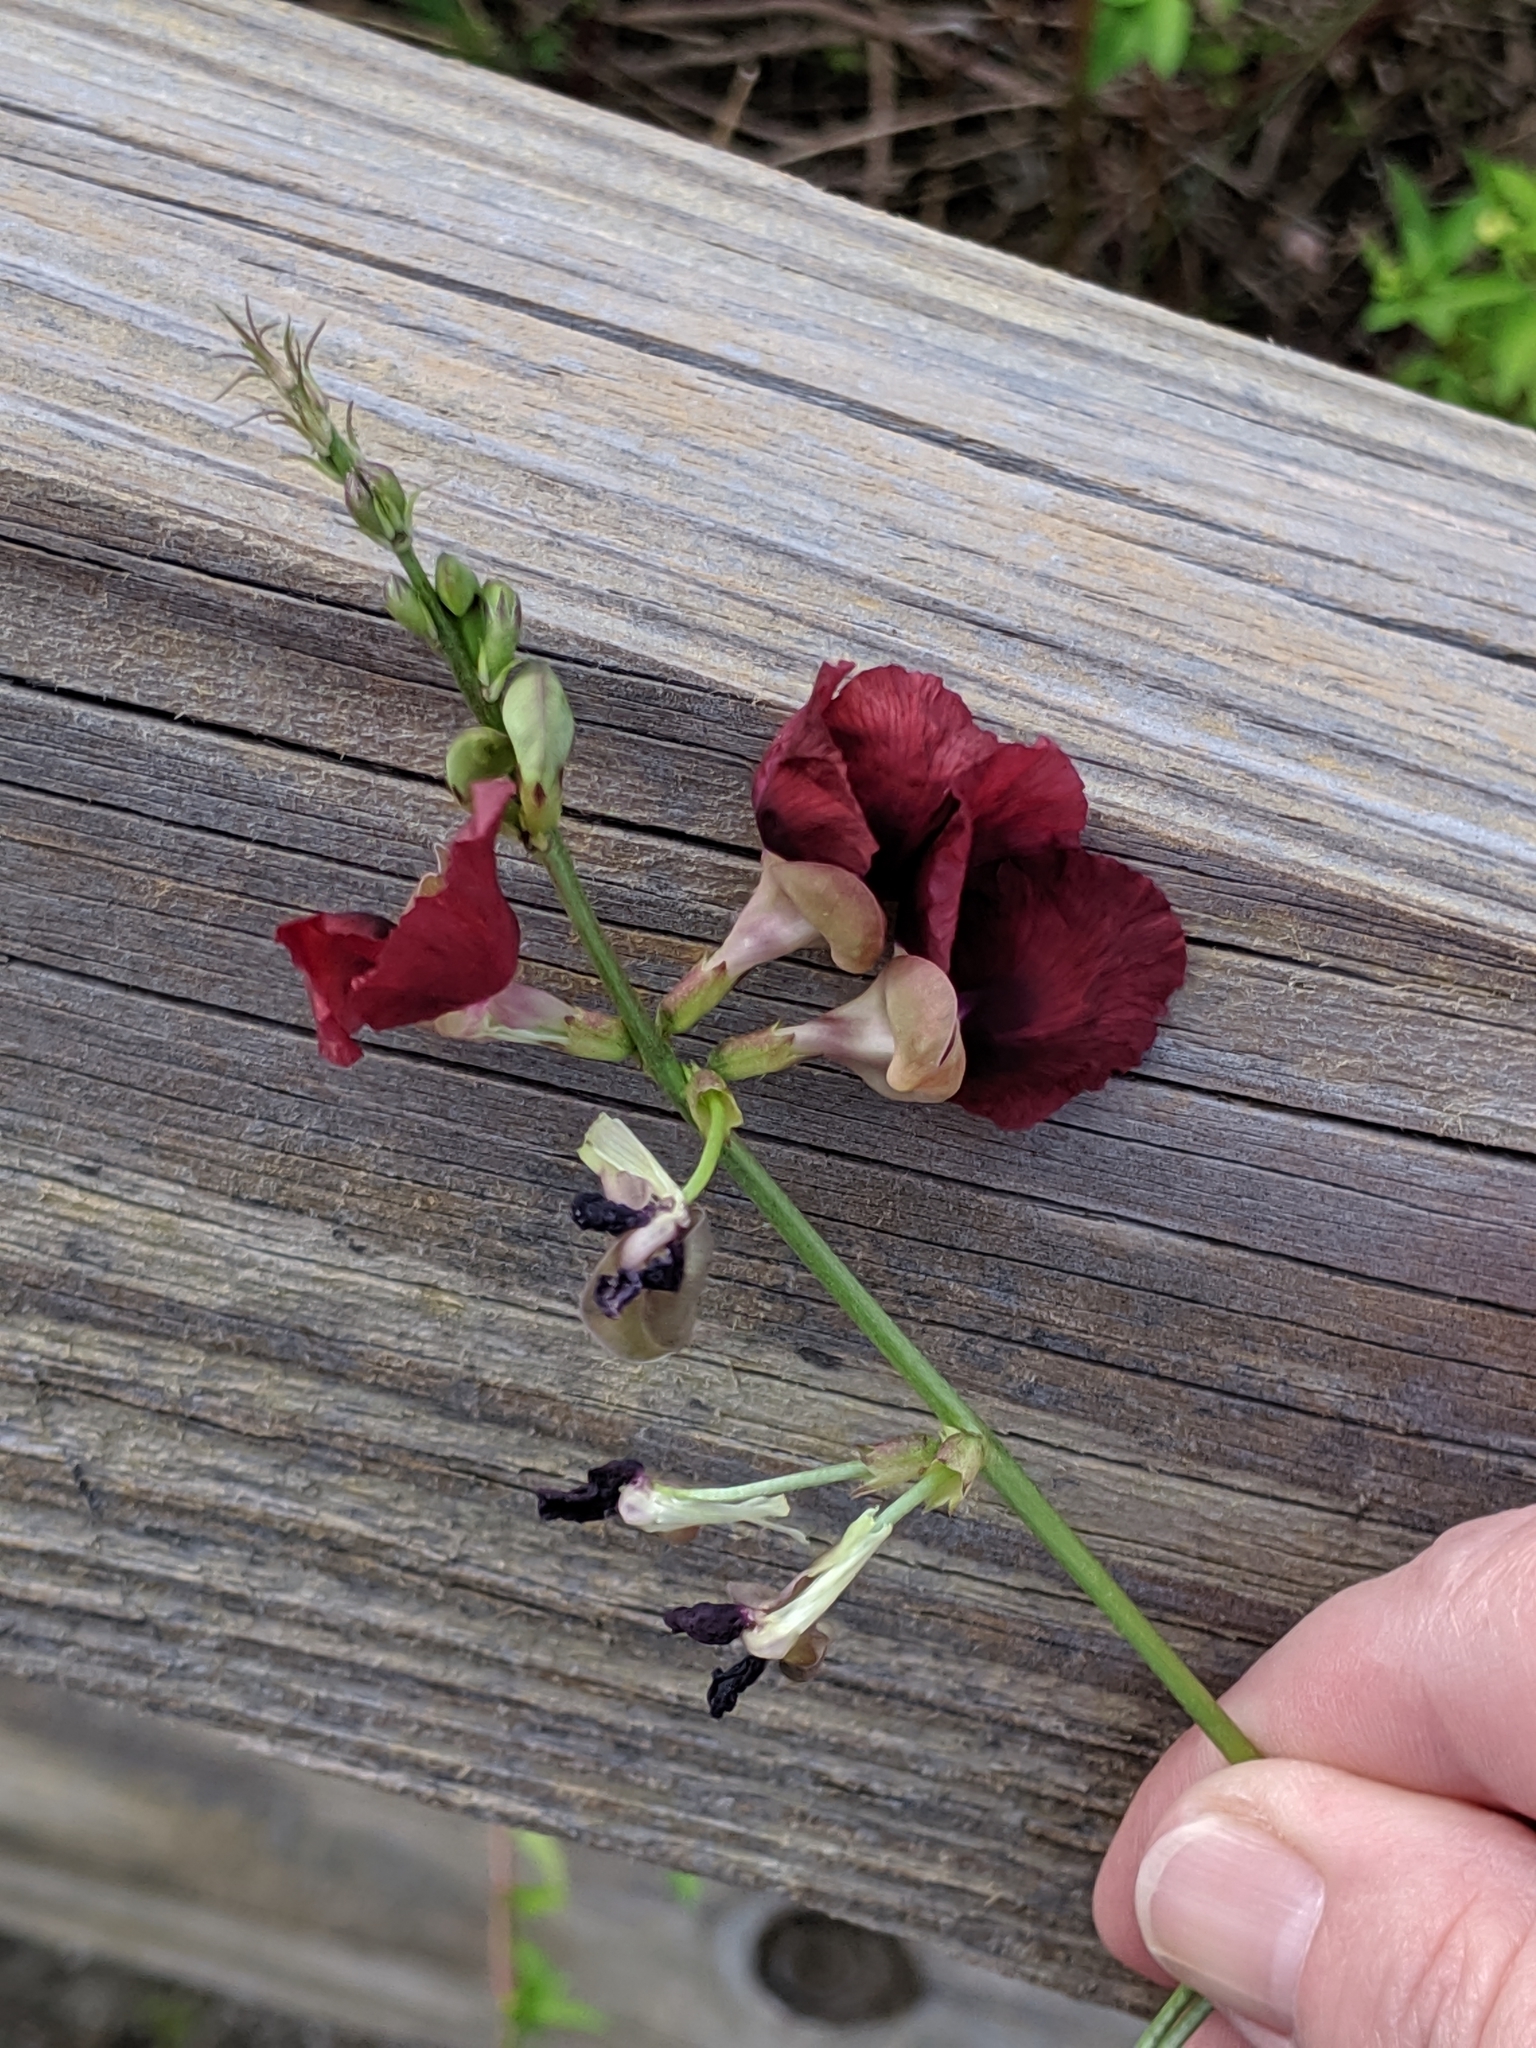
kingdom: Plantae
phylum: Tracheophyta
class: Magnoliopsida
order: Fabales
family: Fabaceae
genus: Macroptilium
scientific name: Macroptilium lathyroides
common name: Wild bushbean
